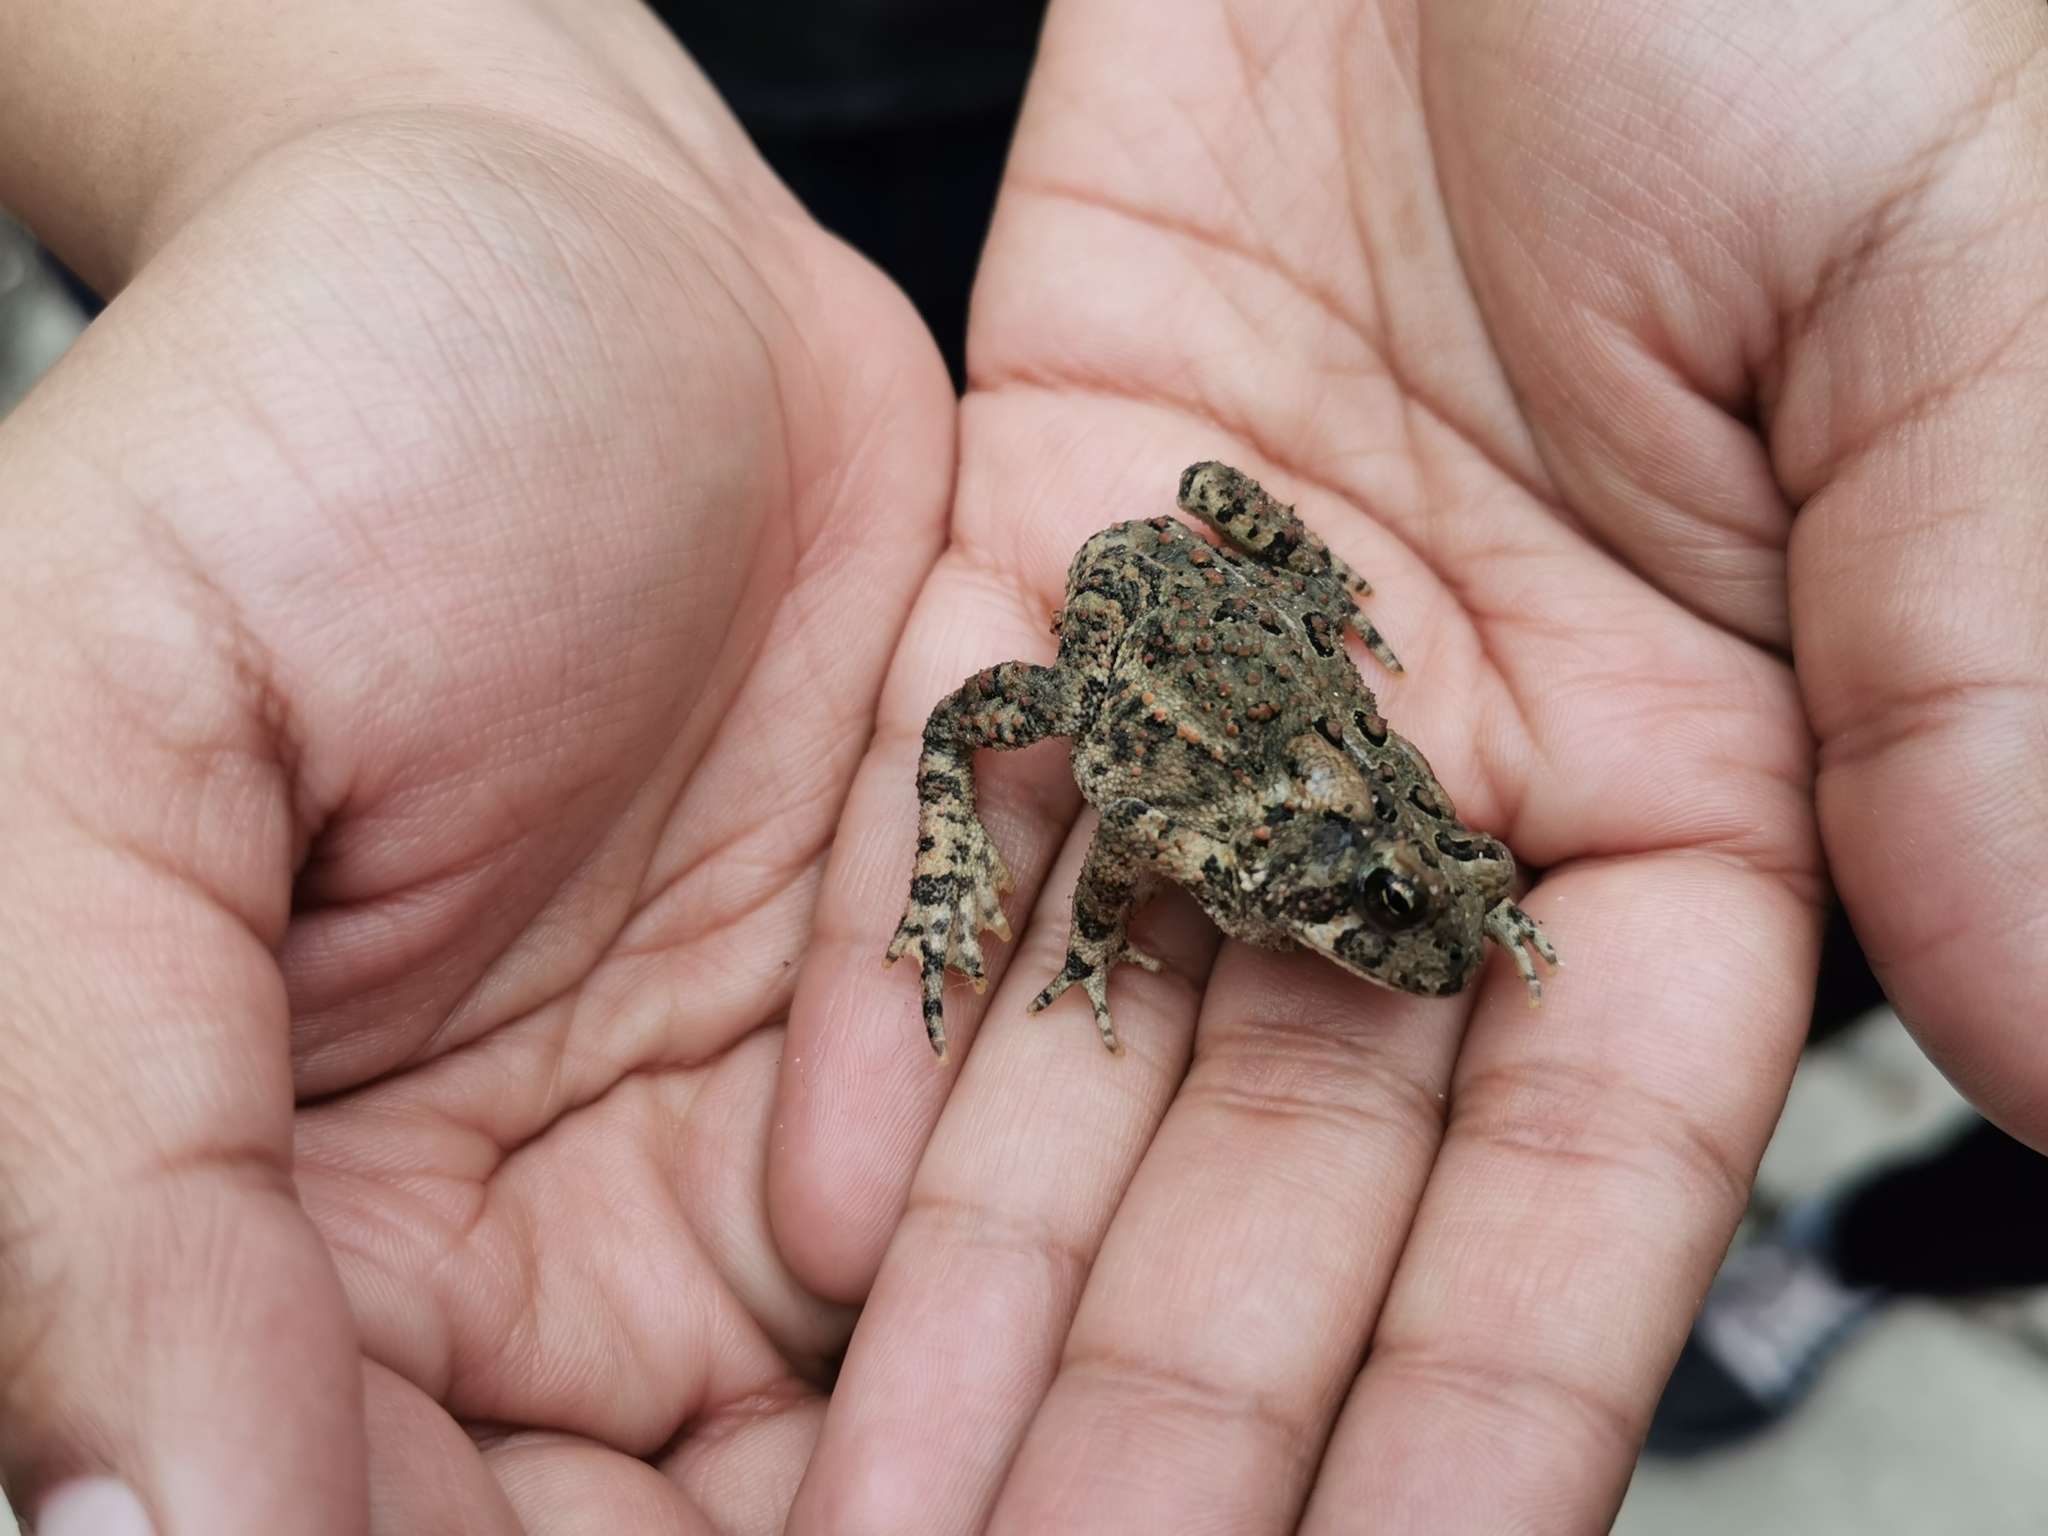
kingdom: Animalia
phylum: Chordata
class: Amphibia
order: Anura
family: Bufonidae
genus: Anaxyrus
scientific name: Anaxyrus americanus
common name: American toad
